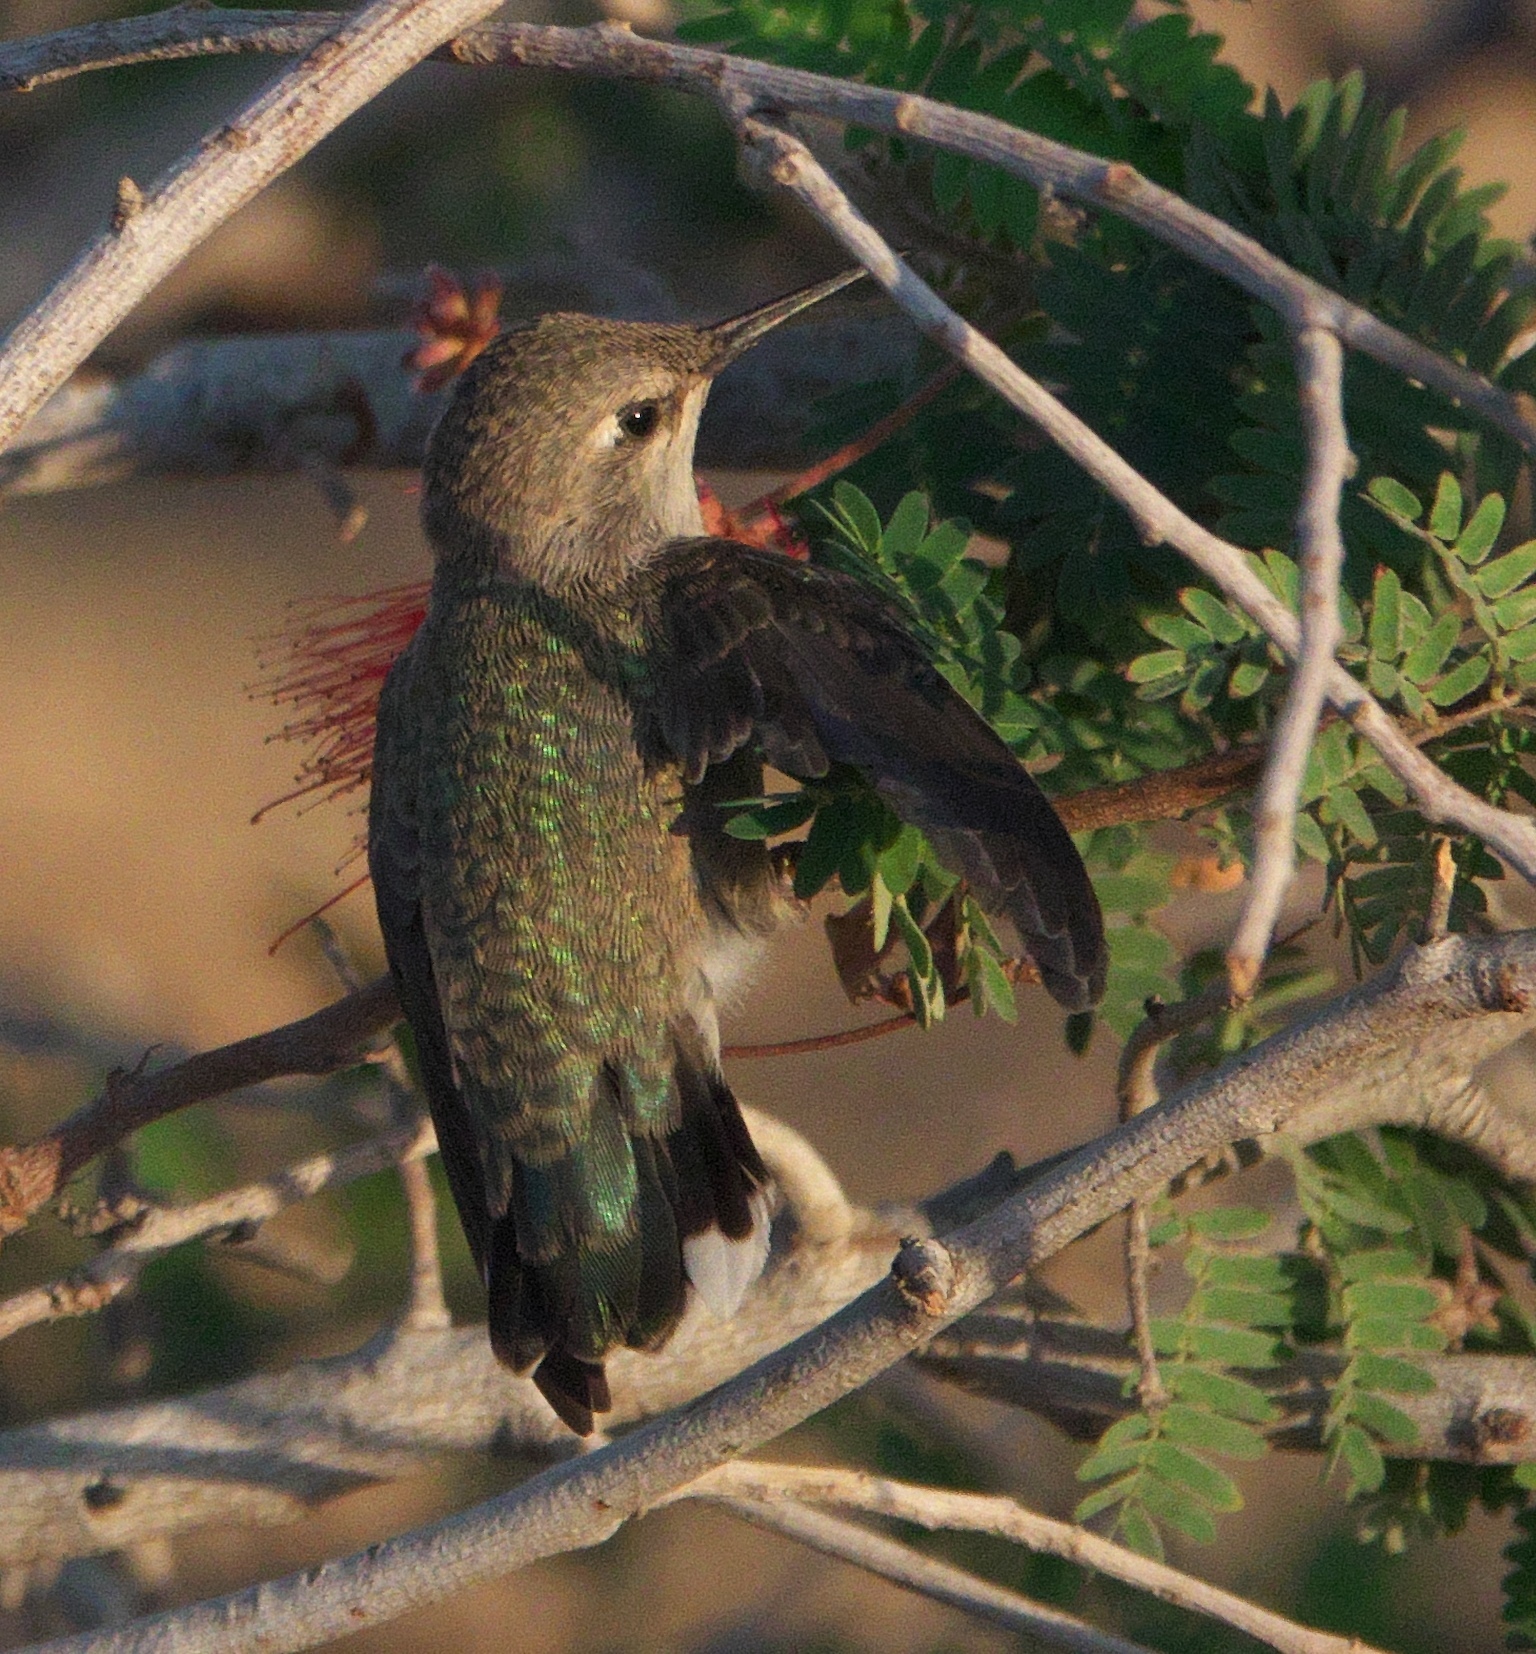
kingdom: Animalia
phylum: Chordata
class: Aves
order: Apodiformes
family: Trochilidae
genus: Calypte
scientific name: Calypte costae
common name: Costa's hummingbird
